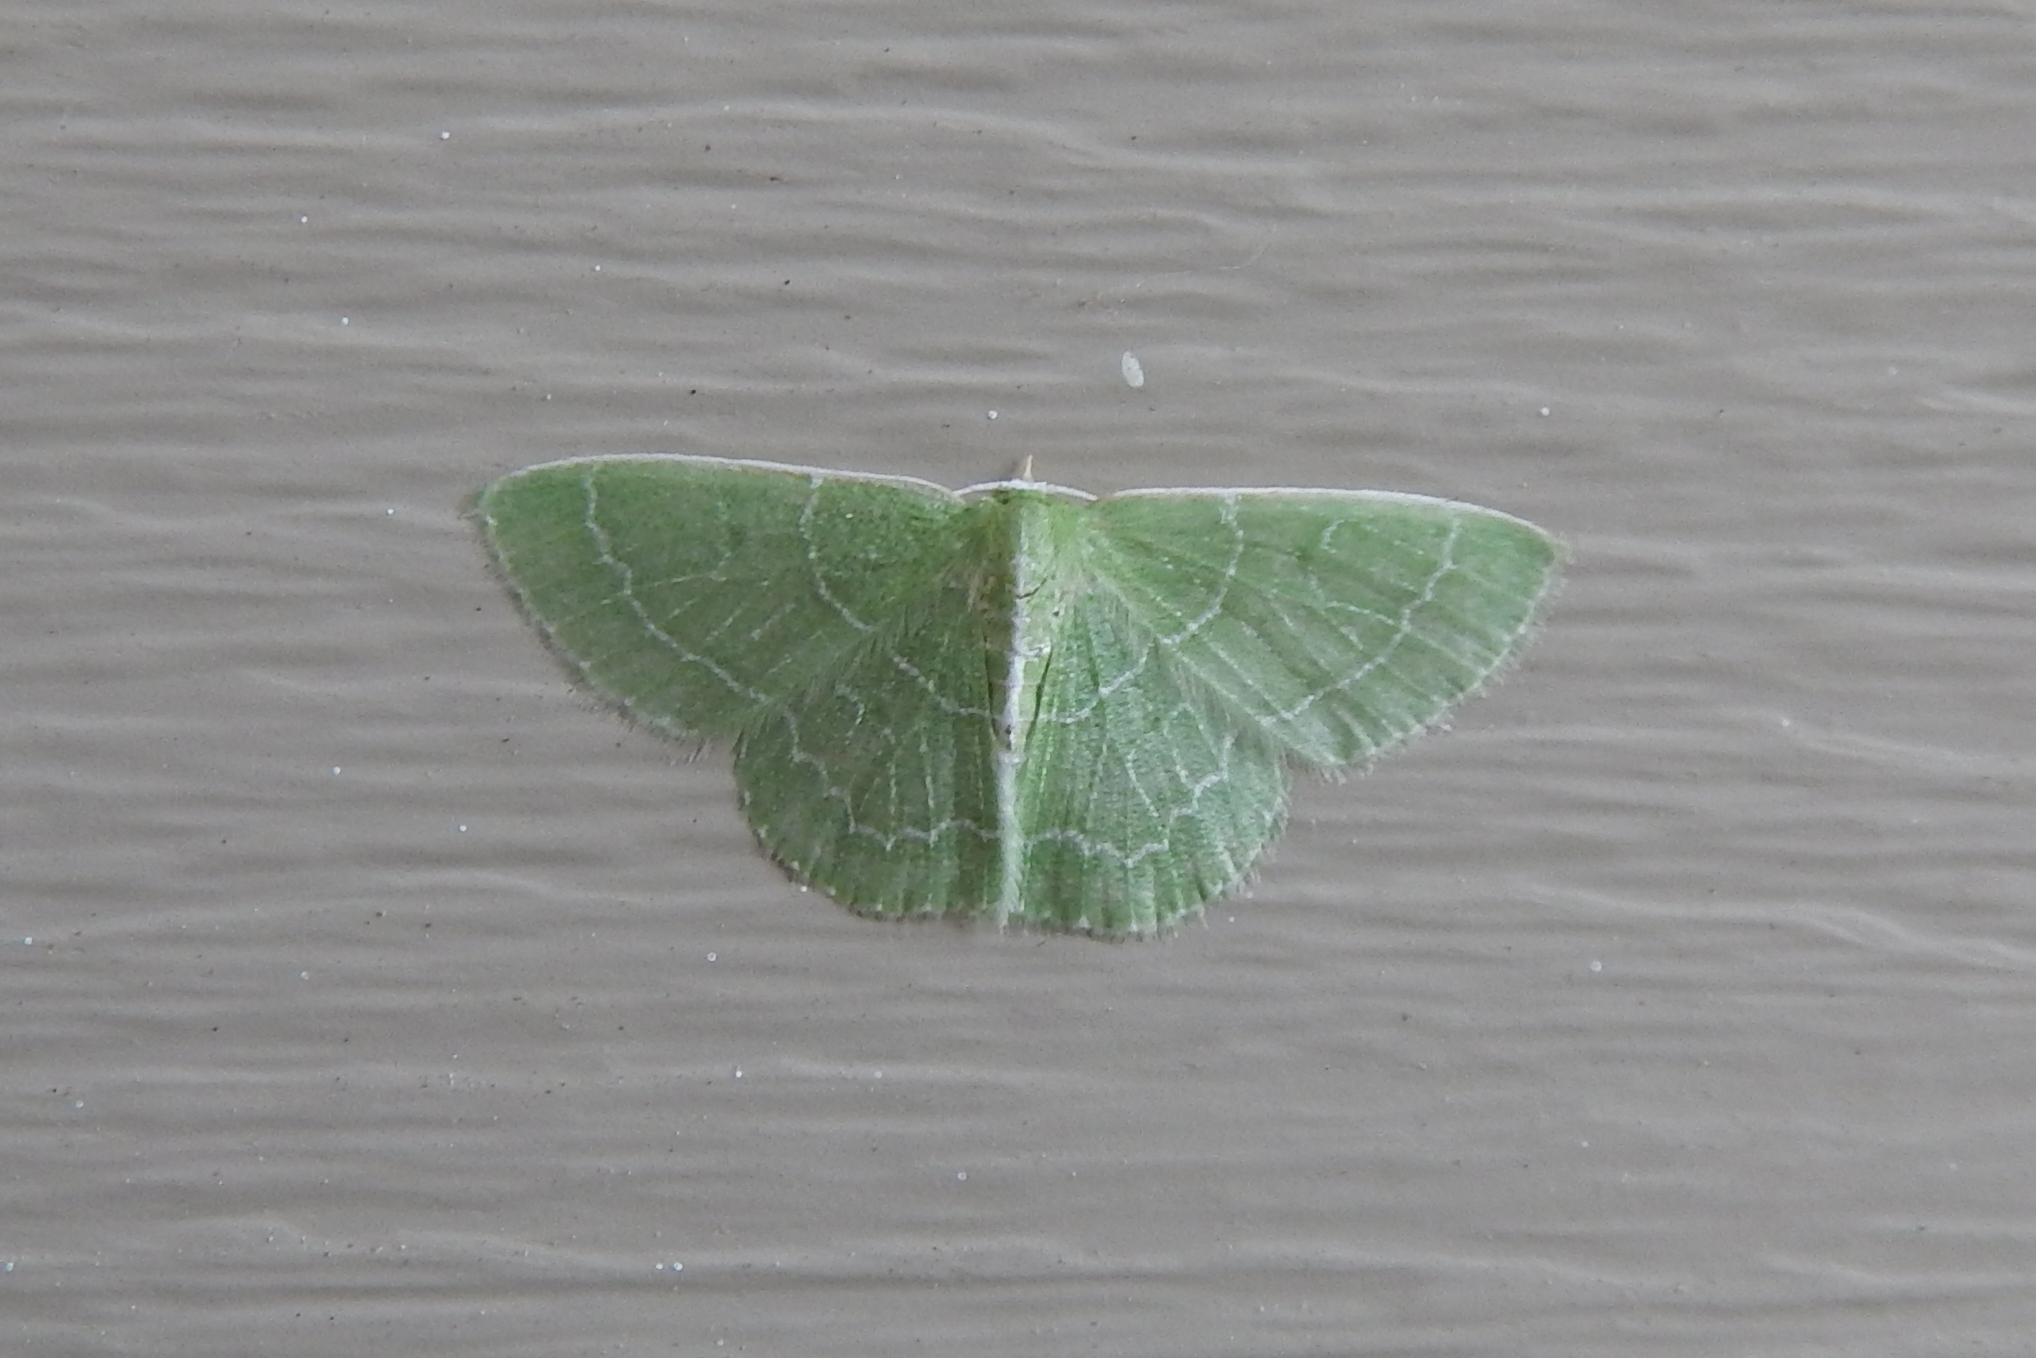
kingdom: Animalia
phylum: Arthropoda
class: Insecta
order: Lepidoptera
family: Geometridae
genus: Synchlora
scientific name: Synchlora aerata
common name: Wavy-lined emerald
